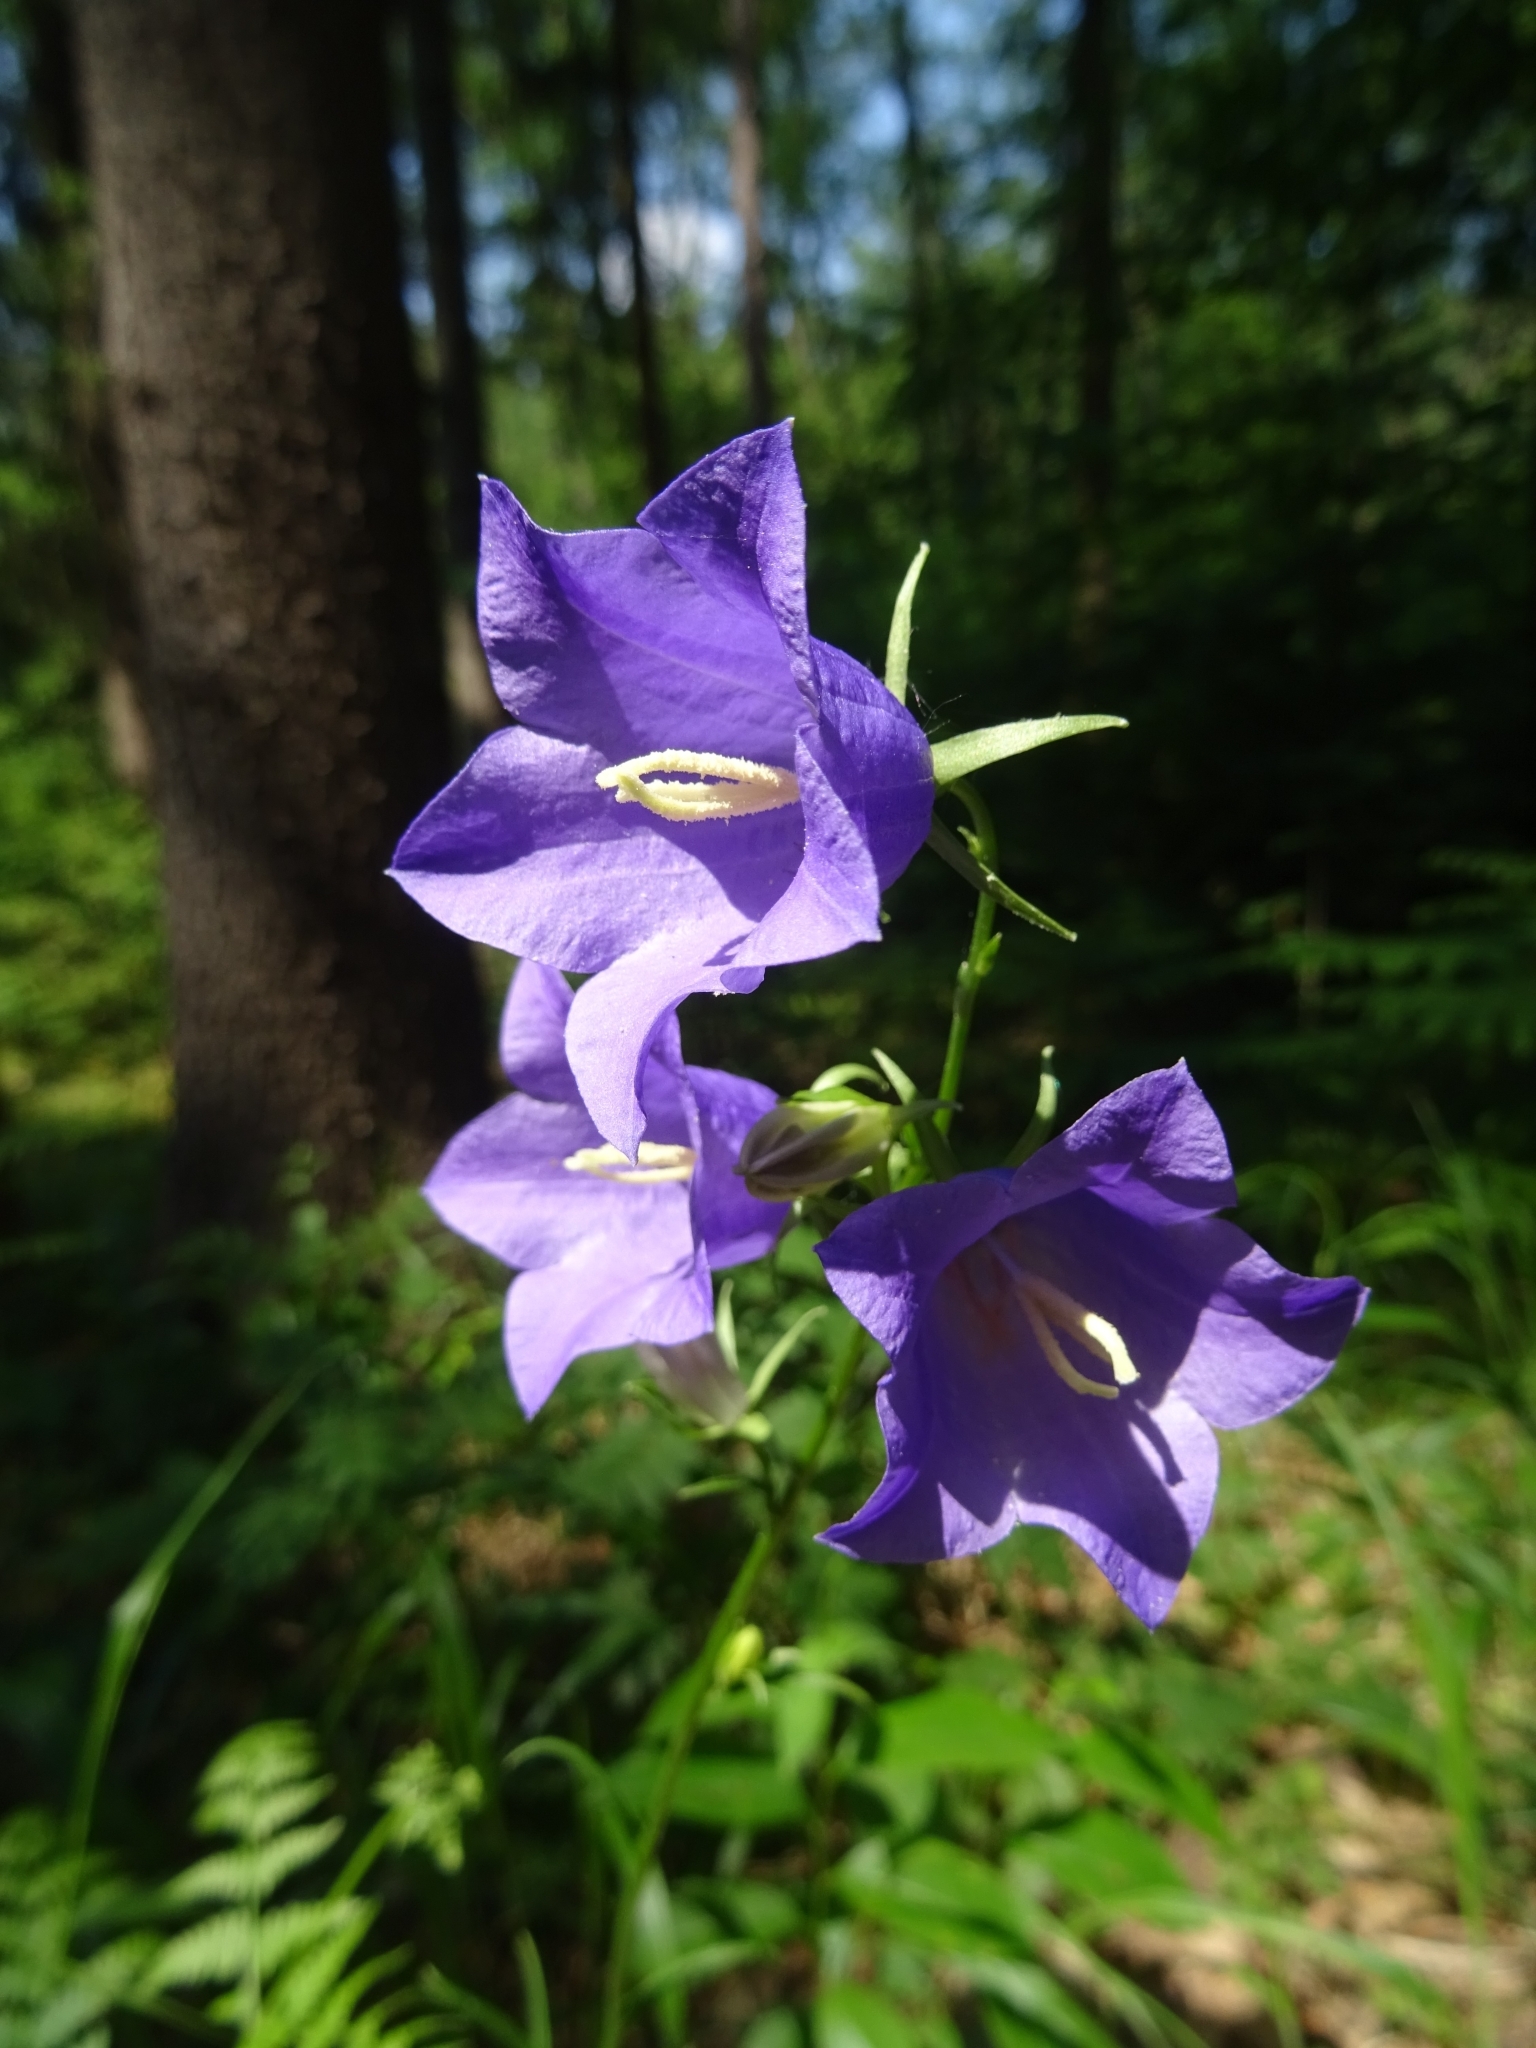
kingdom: Plantae
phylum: Tracheophyta
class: Magnoliopsida
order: Asterales
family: Campanulaceae
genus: Campanula
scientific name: Campanula persicifolia
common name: Peach-leaved bellflower
